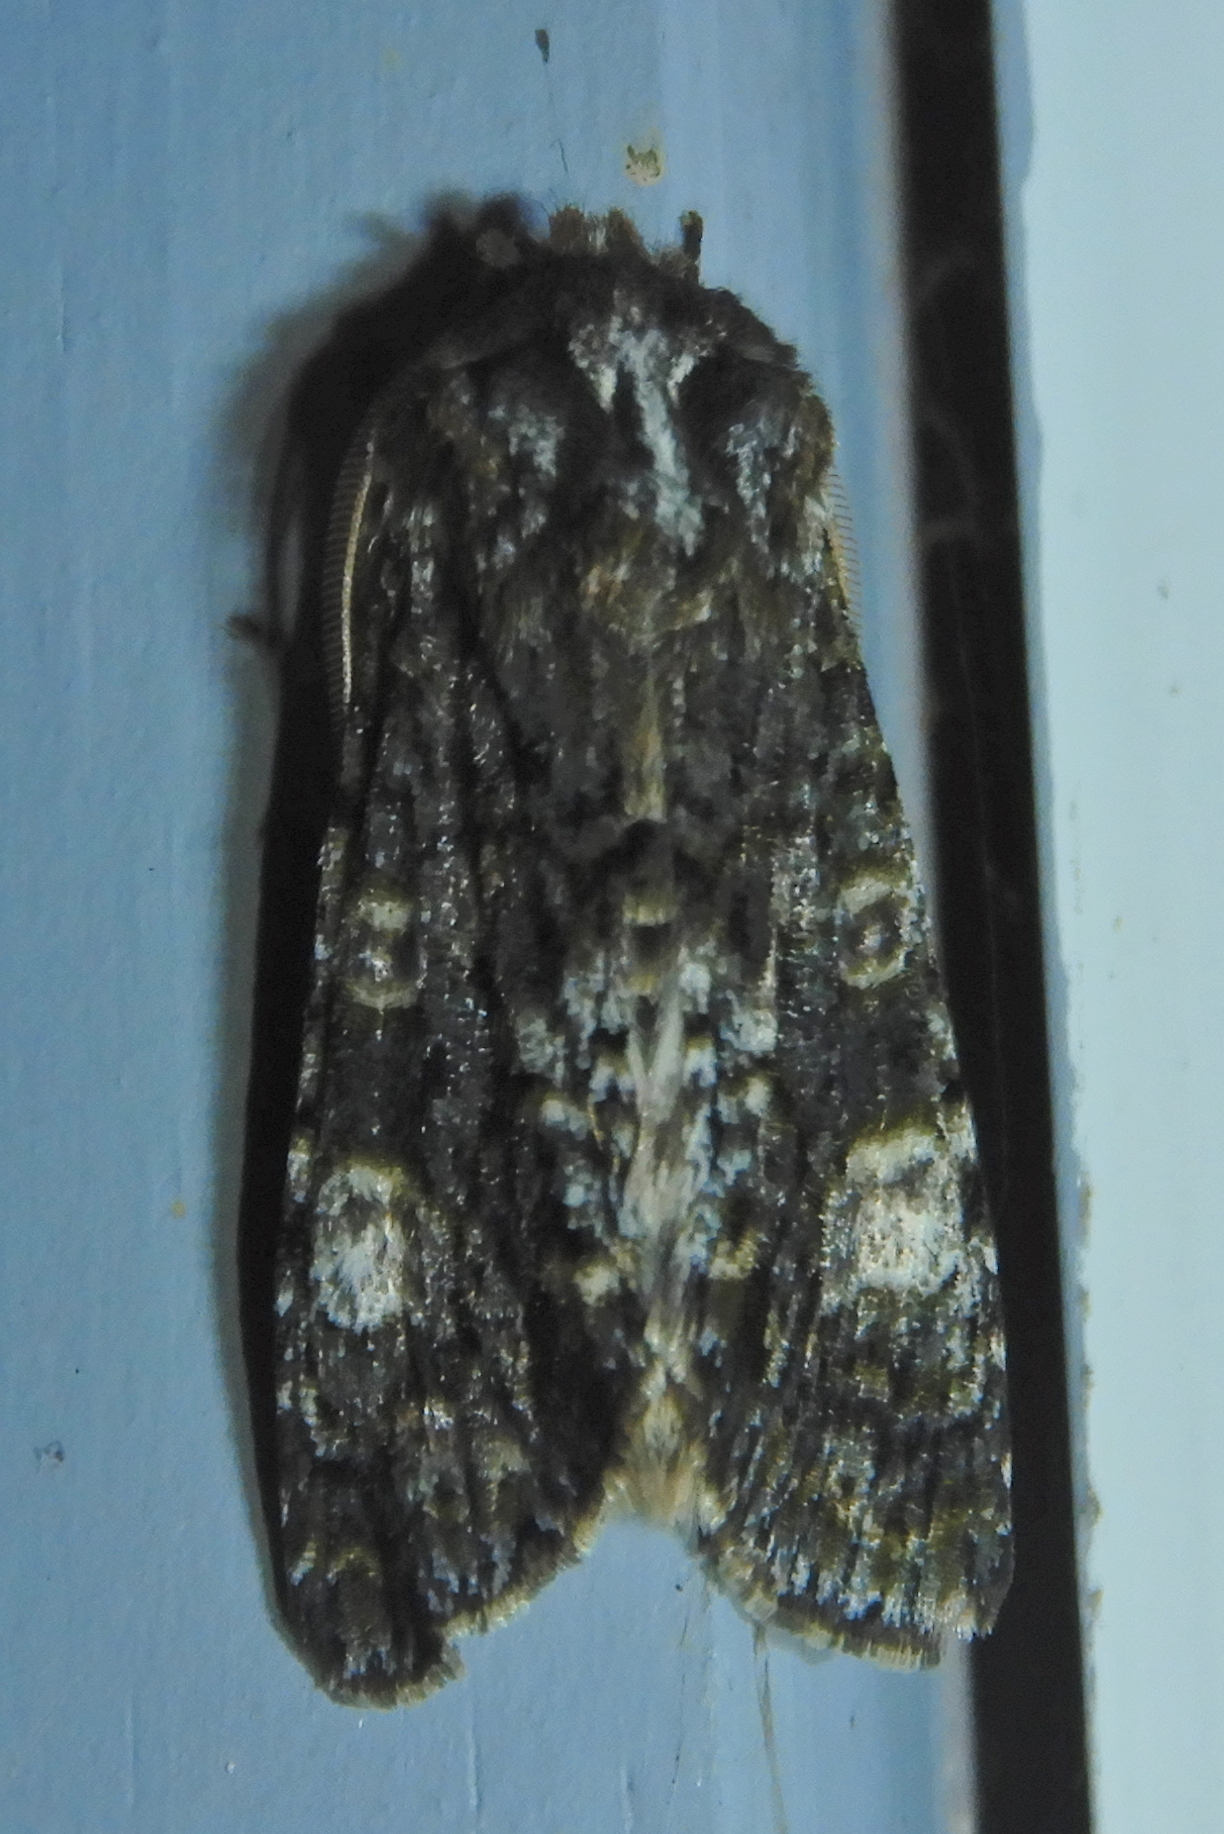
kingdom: Animalia
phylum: Arthropoda
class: Insecta
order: Lepidoptera
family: Noctuidae
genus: Psaphida
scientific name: Psaphida grotei
